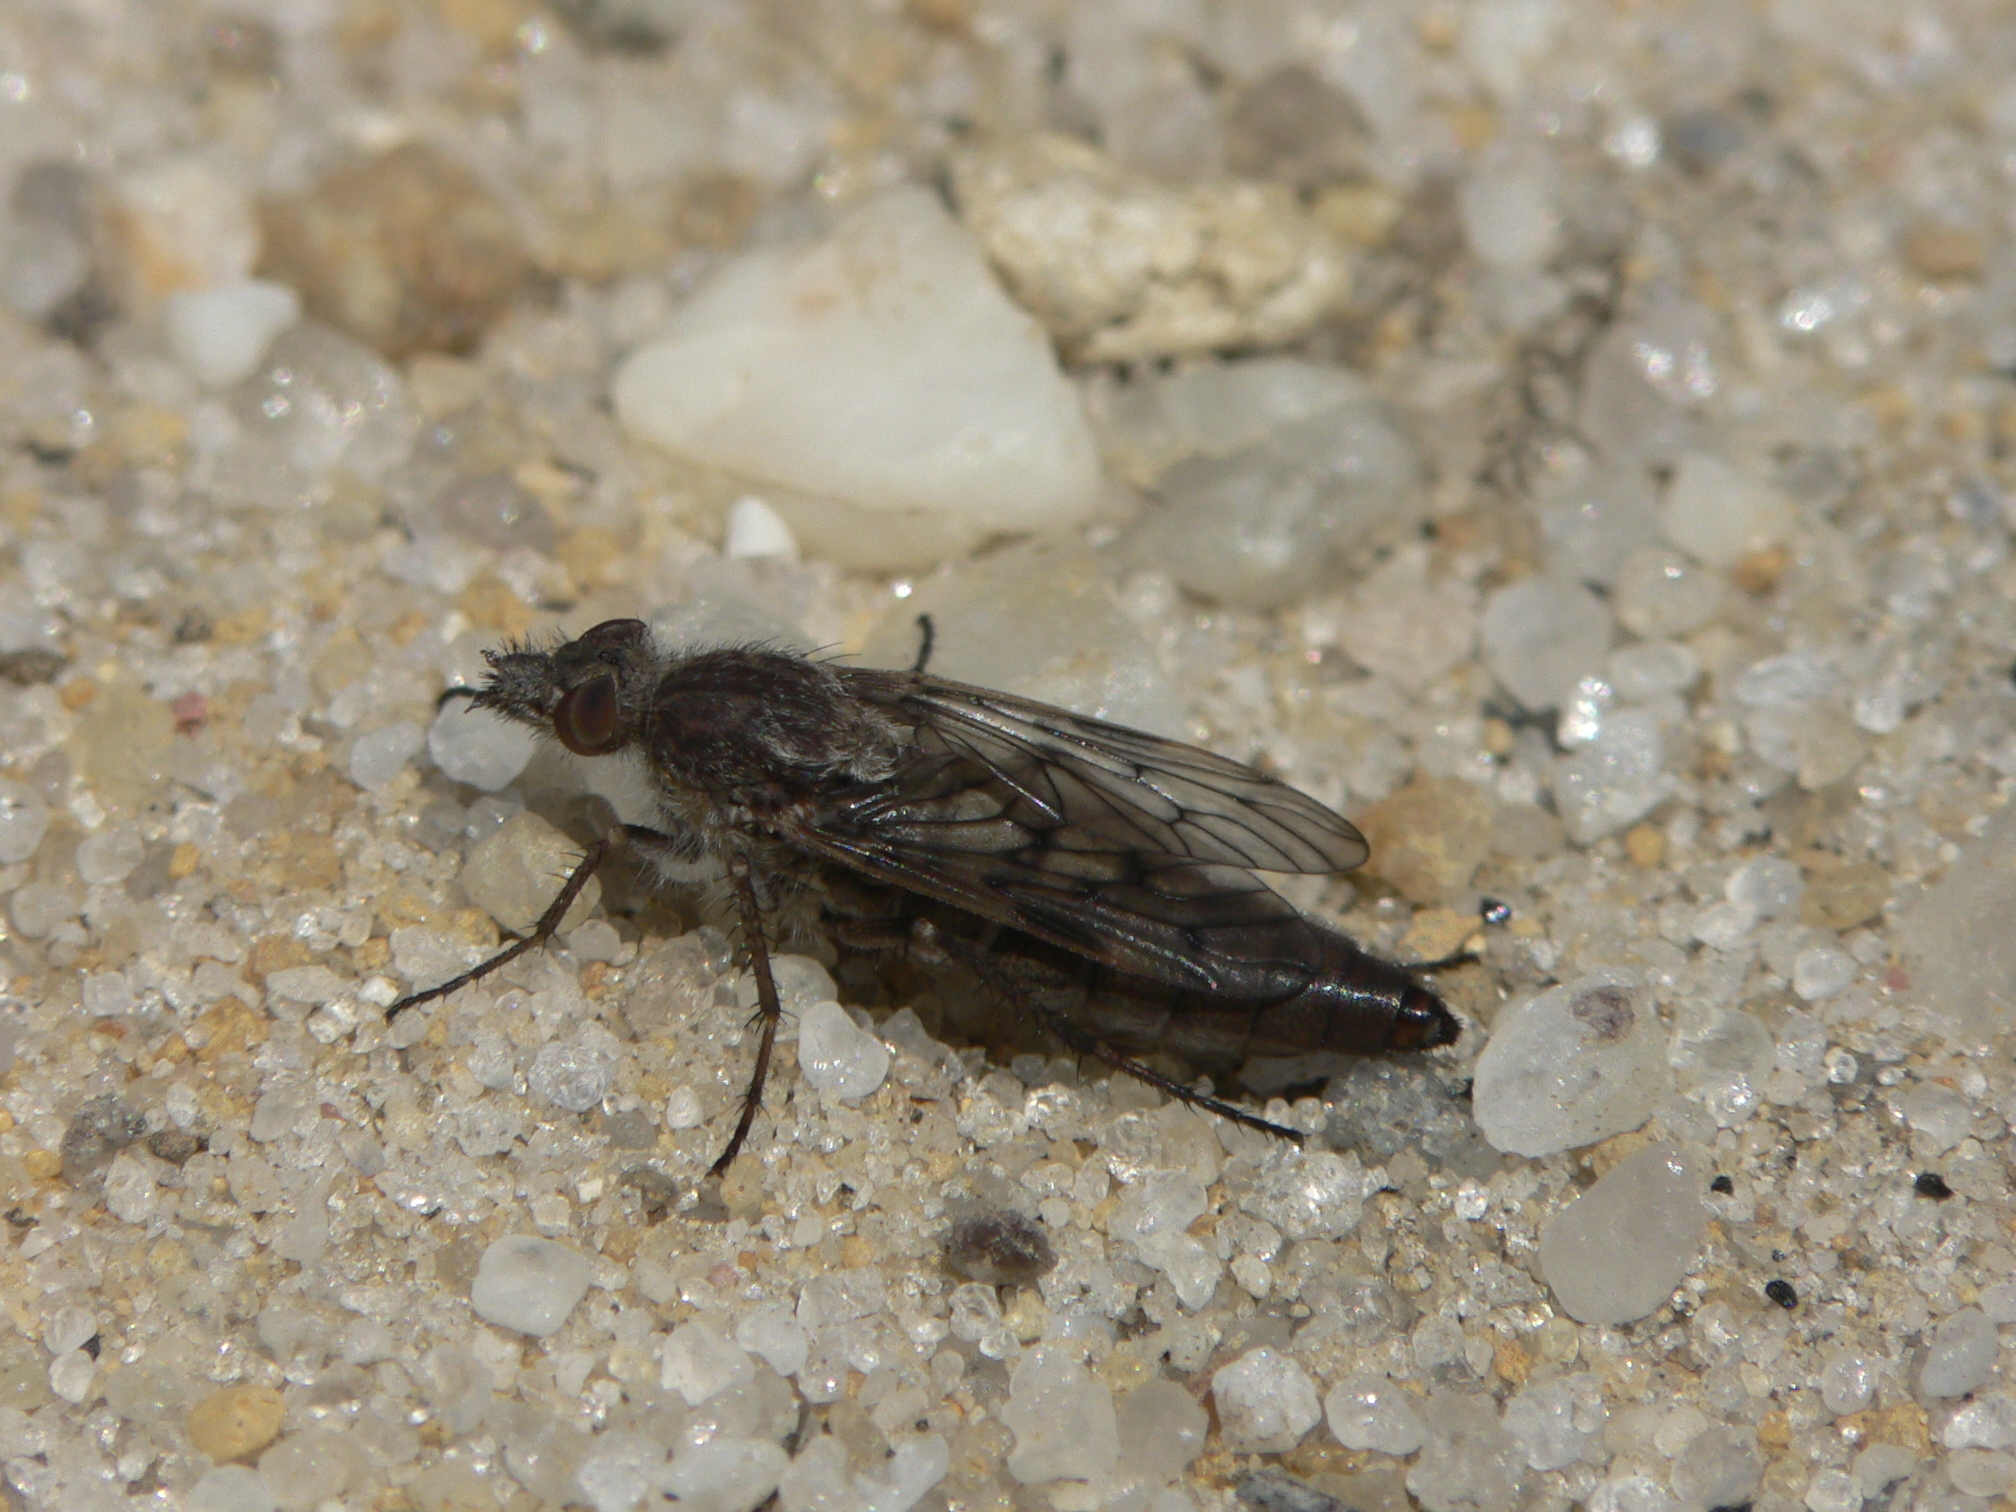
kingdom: Animalia
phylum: Arthropoda
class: Insecta
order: Diptera
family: Therevidae
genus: Tabuda
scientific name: Tabuda varia
